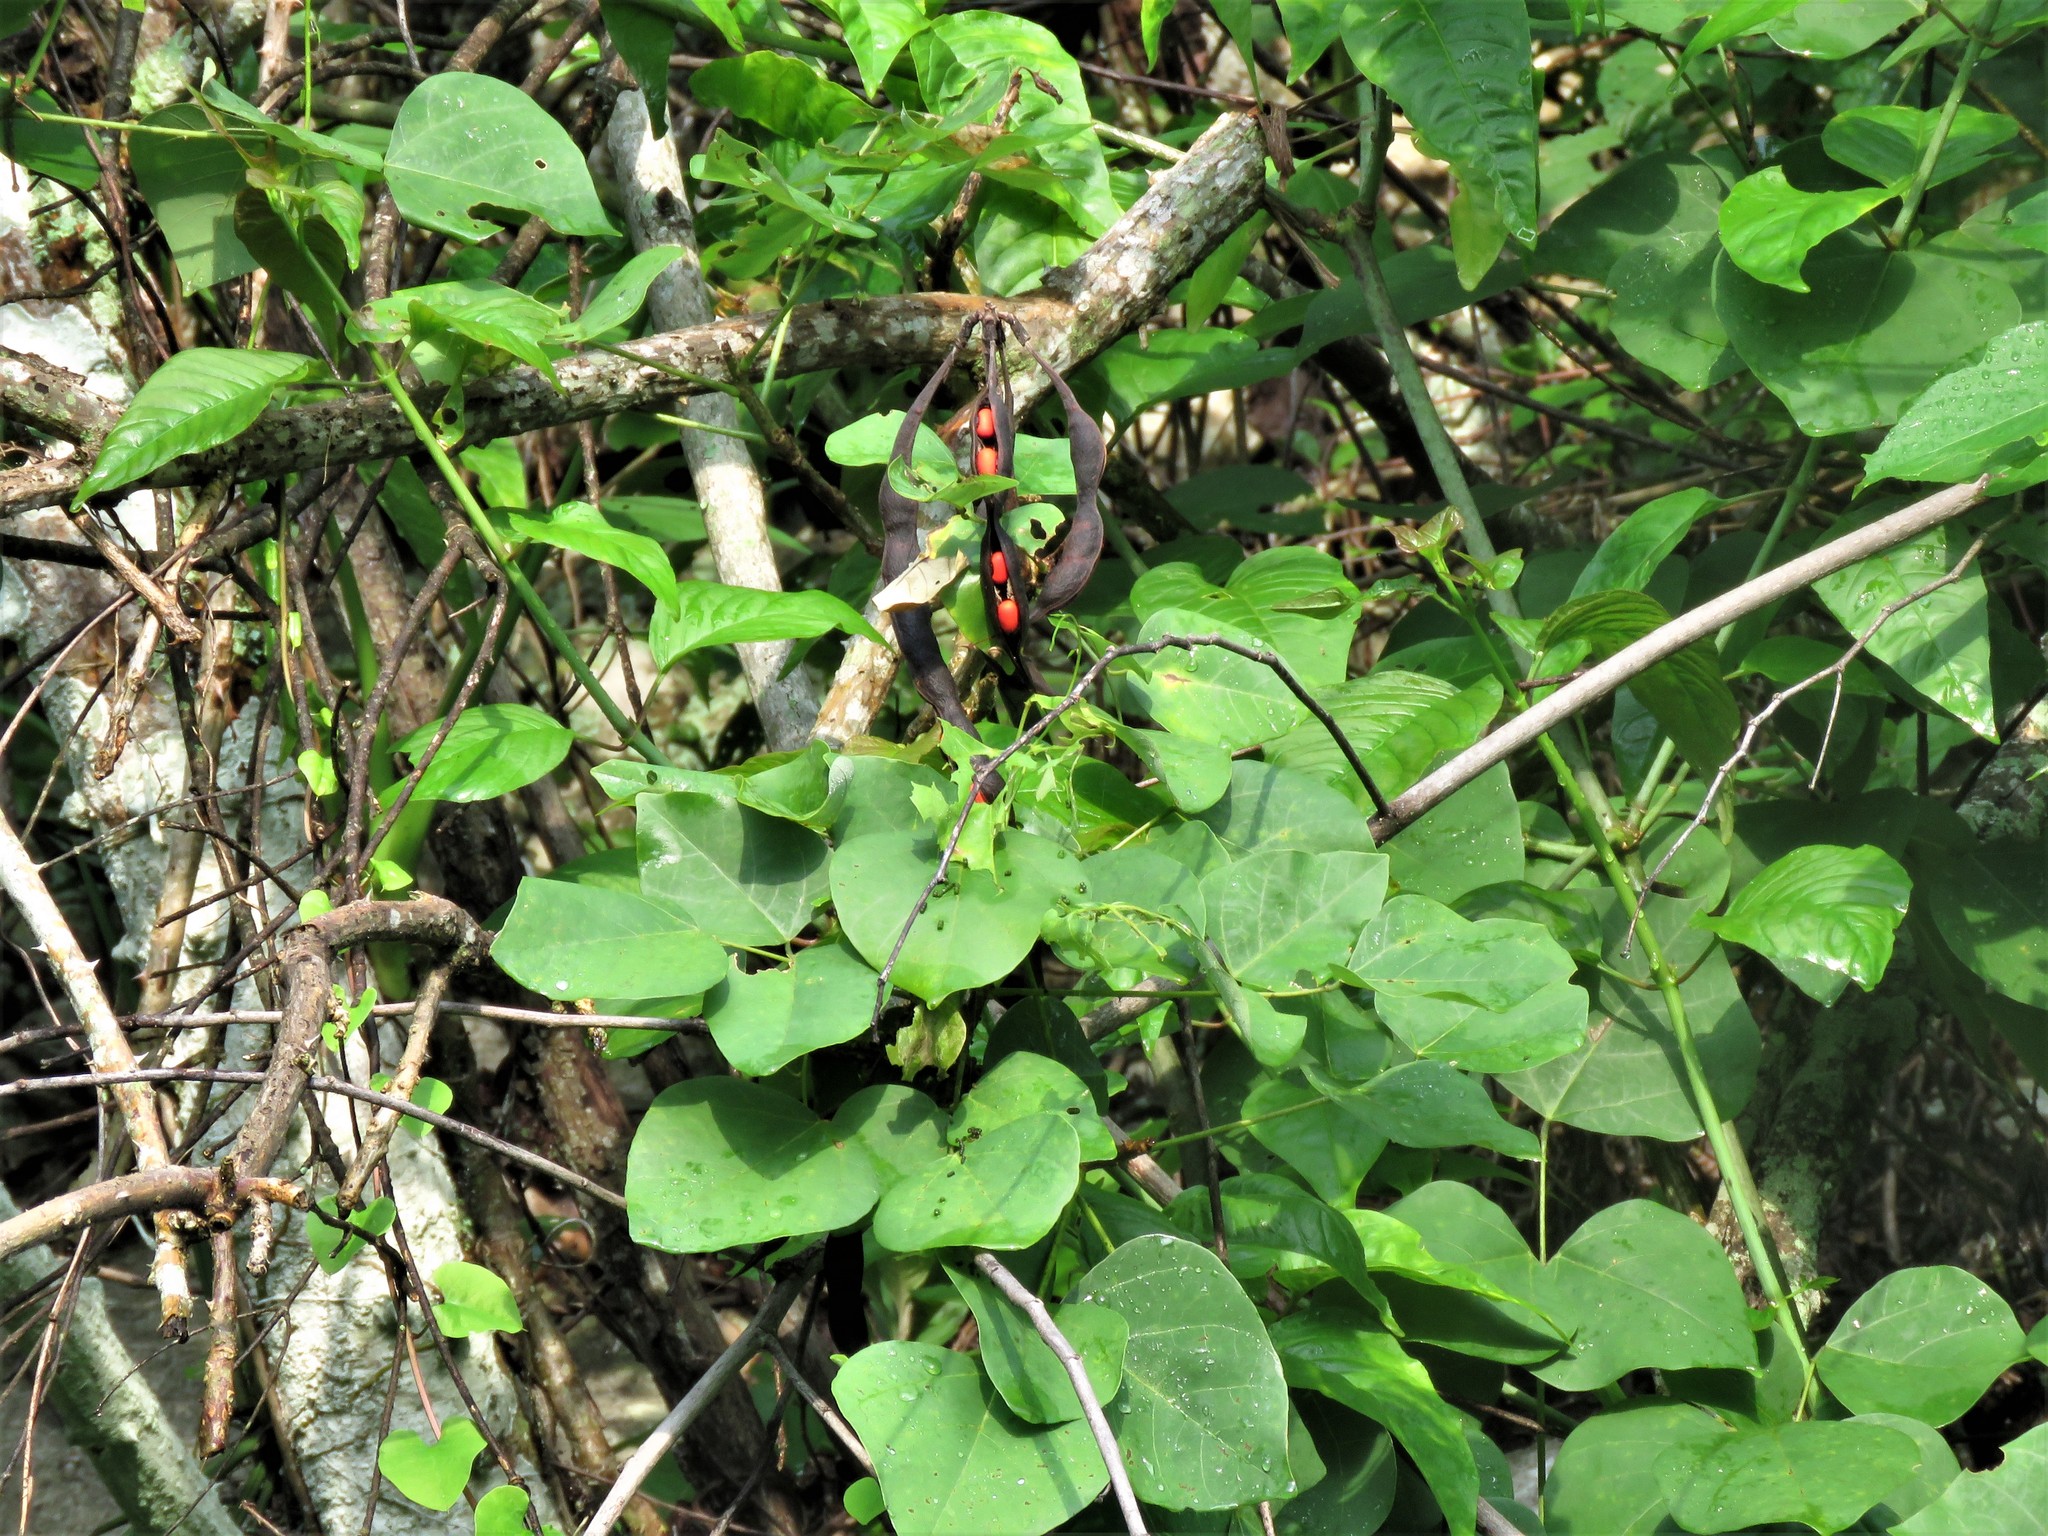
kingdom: Plantae
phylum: Tracheophyta
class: Magnoliopsida
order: Fabales
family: Fabaceae
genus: Erythrina
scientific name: Erythrina herbacea
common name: Coral-bean
